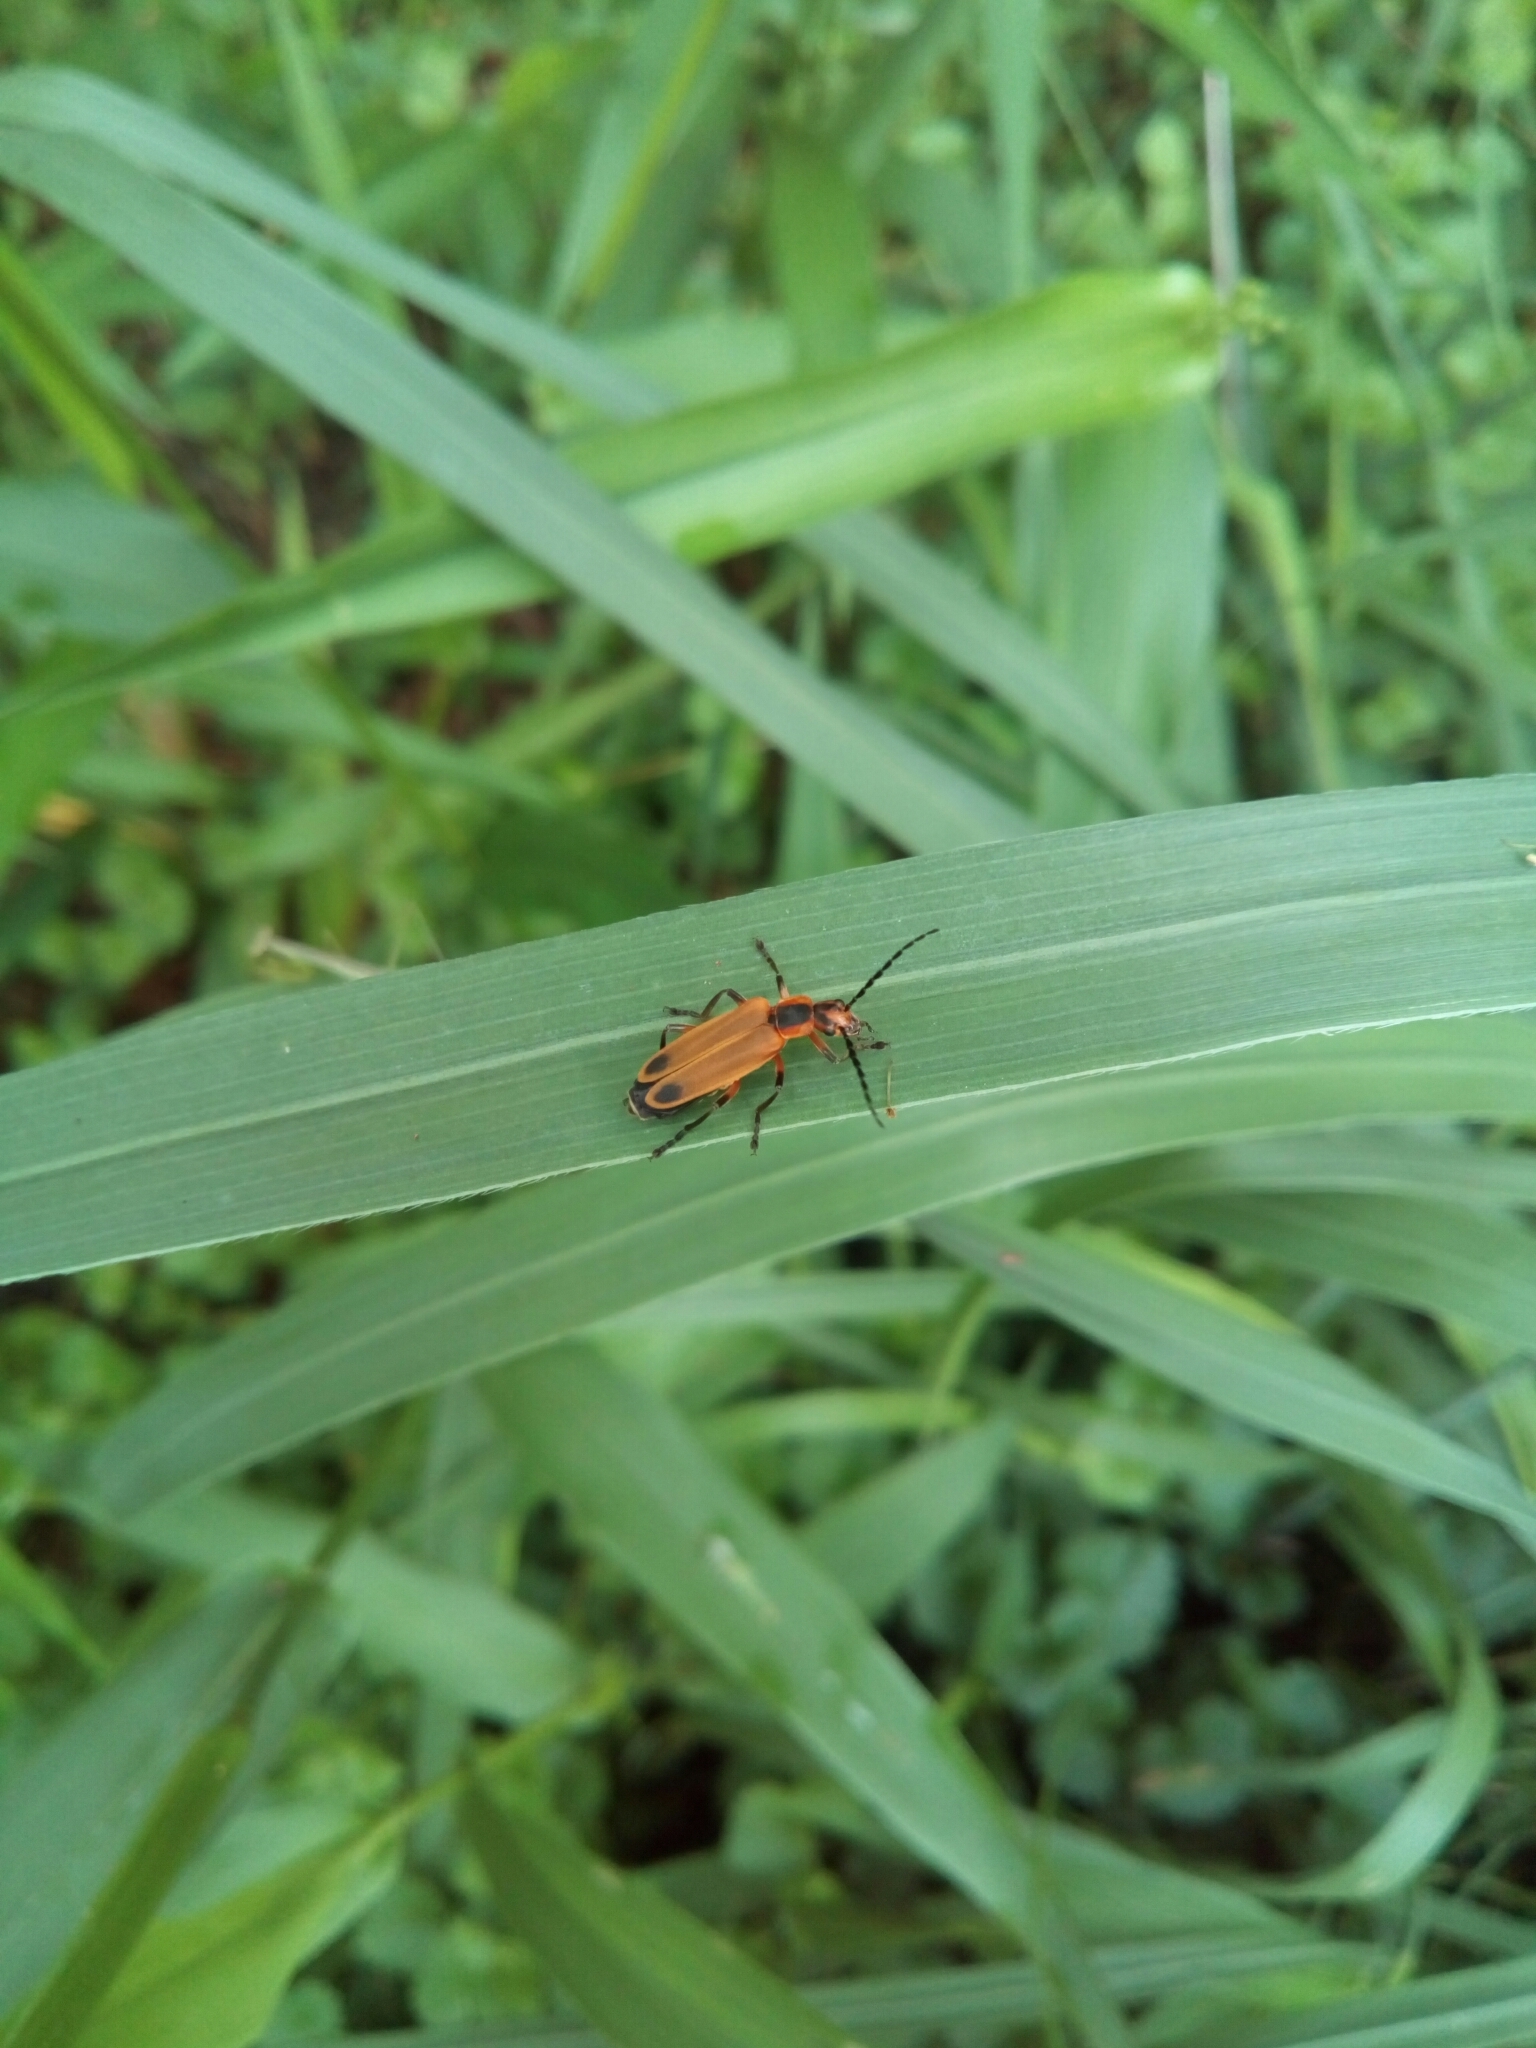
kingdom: Animalia
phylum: Arthropoda
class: Insecta
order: Coleoptera
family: Cantharidae
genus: Chauliognathus
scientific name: Chauliognathus marginatus
